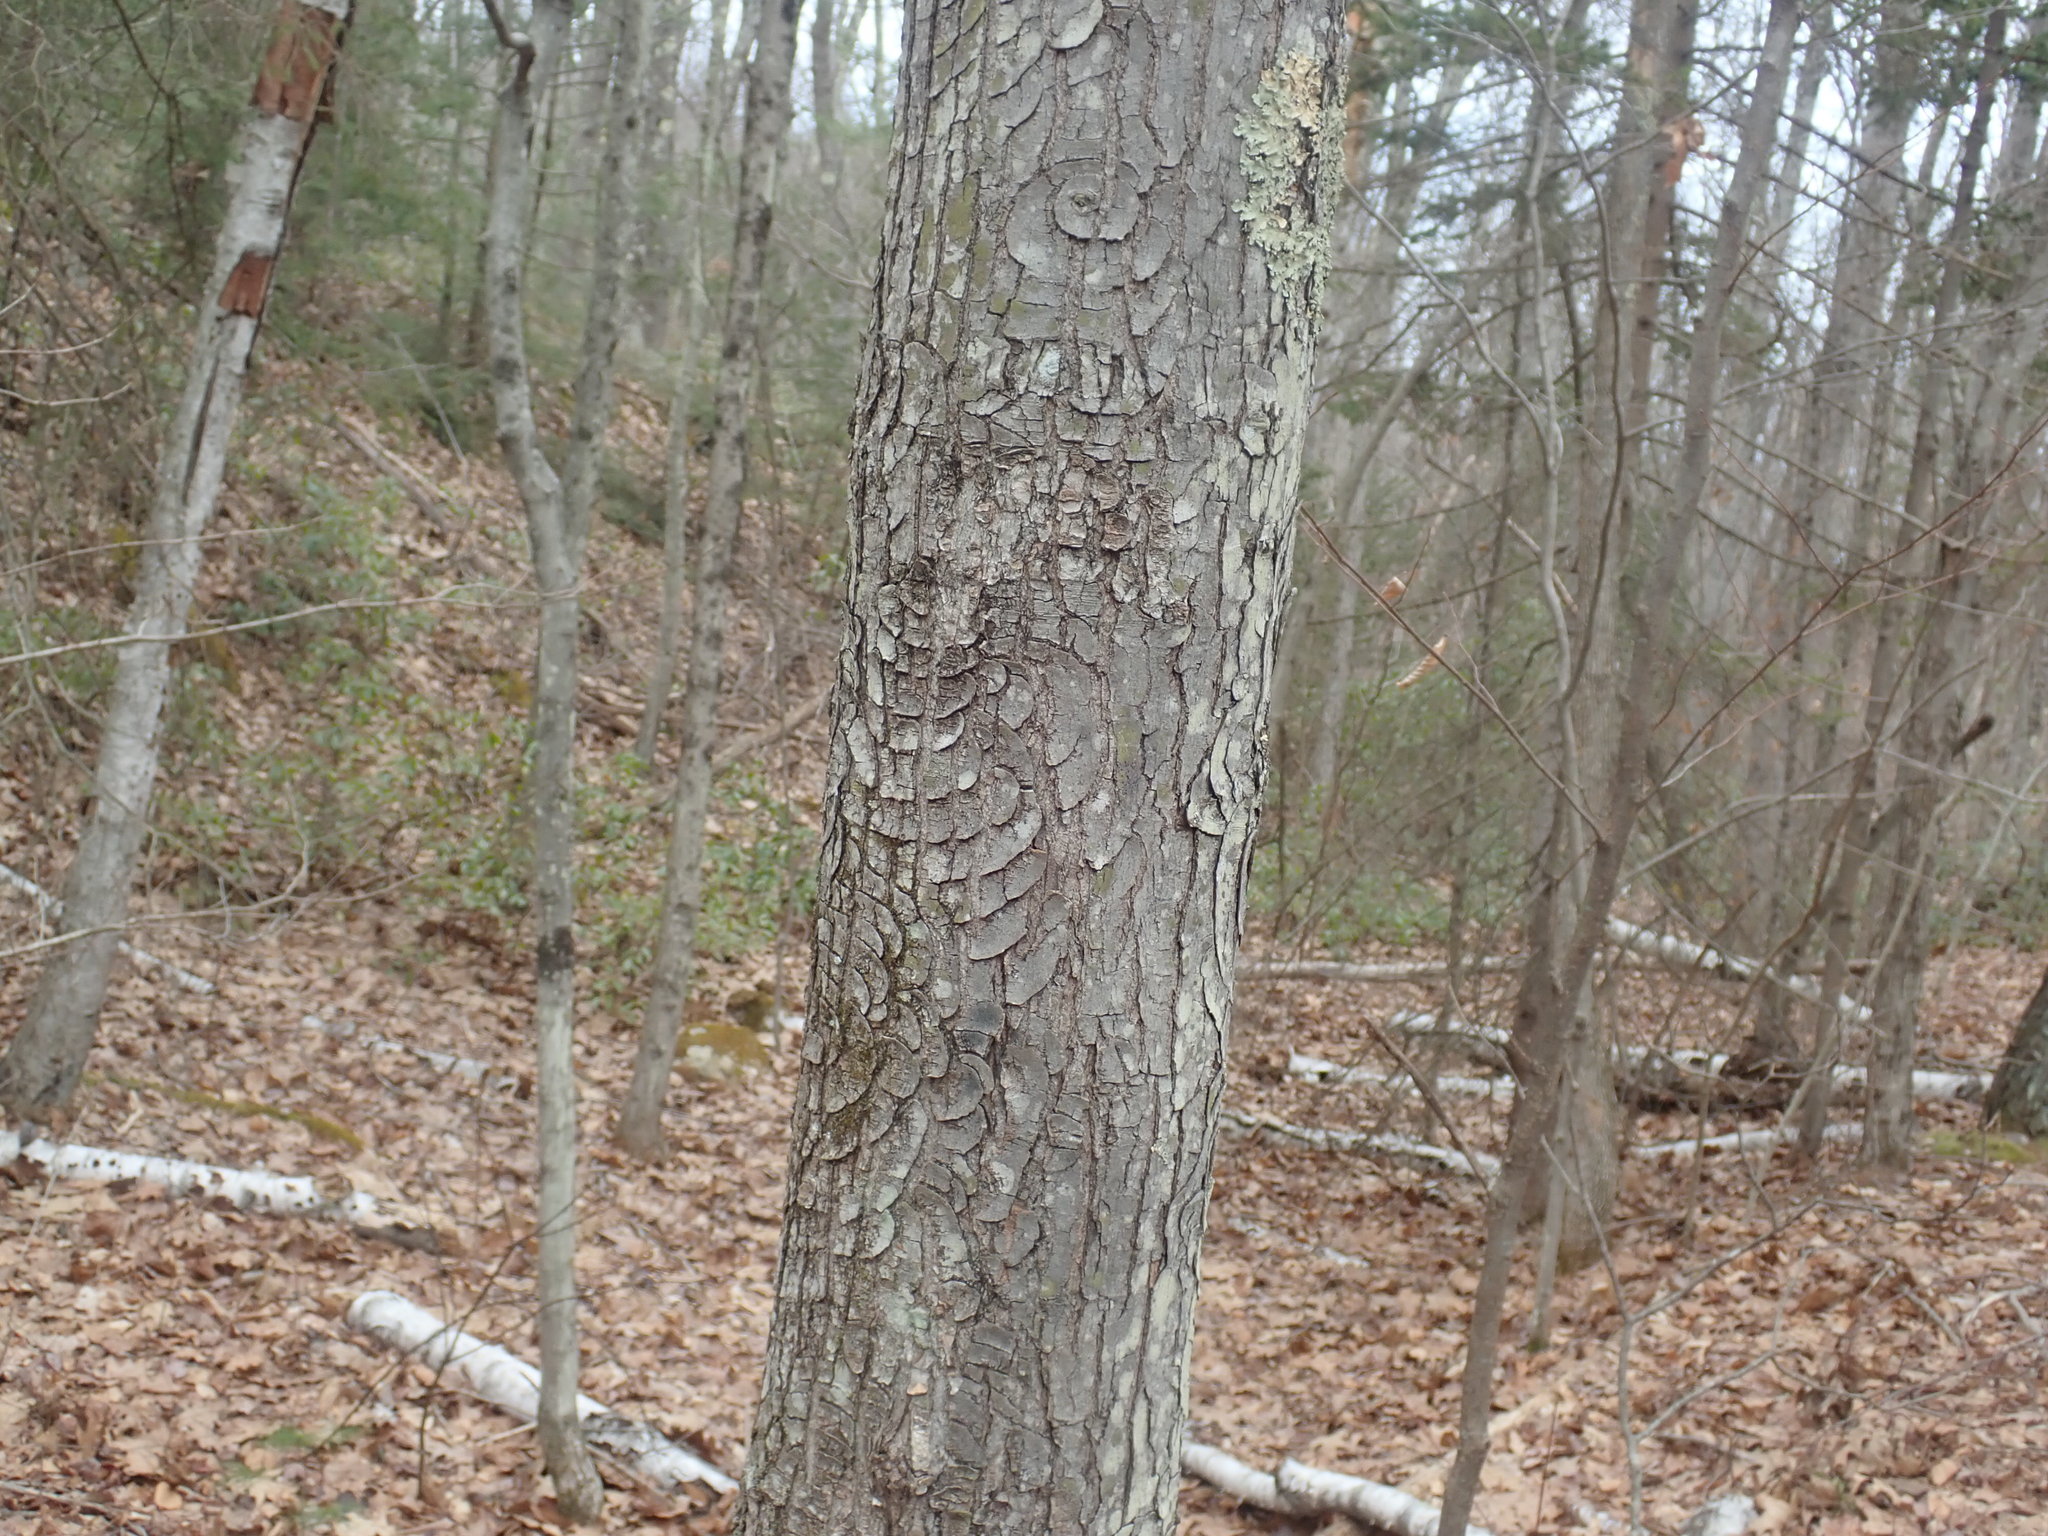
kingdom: Plantae
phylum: Tracheophyta
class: Magnoliopsida
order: Sapindales
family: Sapindaceae
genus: Acer
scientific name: Acer rubrum
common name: Red maple
